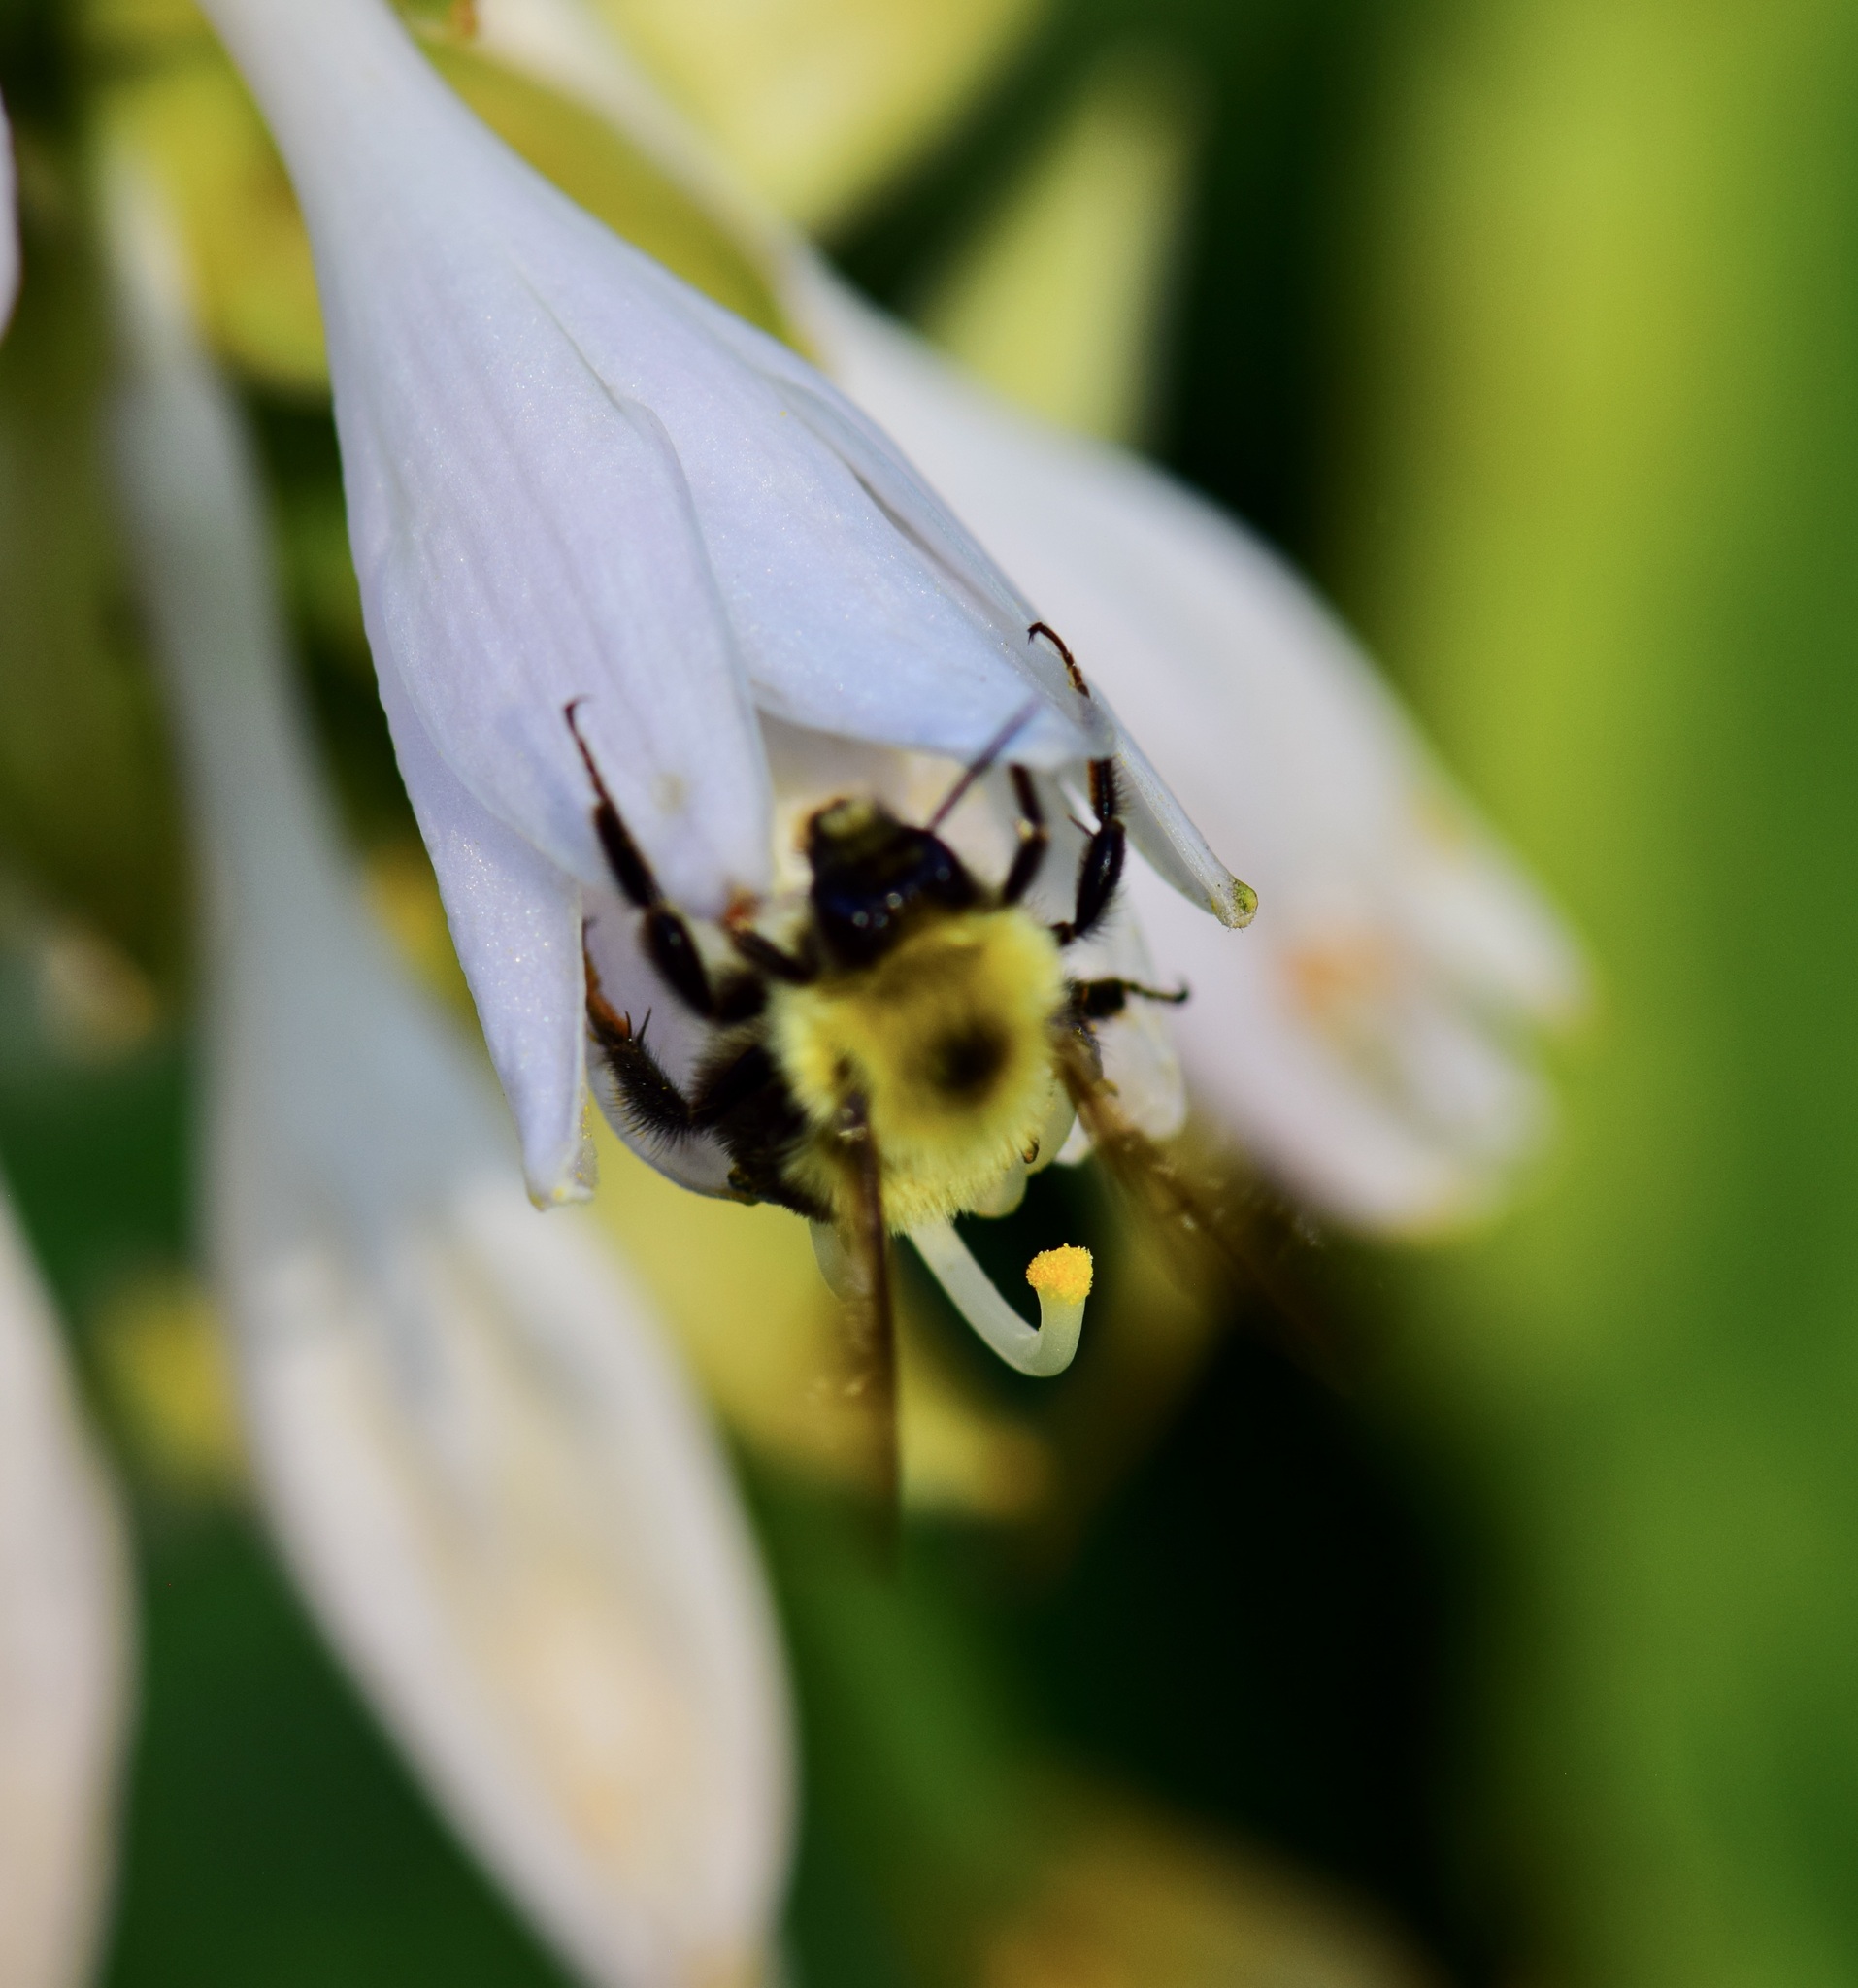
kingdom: Animalia
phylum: Arthropoda
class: Insecta
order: Hymenoptera
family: Apidae
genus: Bombus
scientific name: Bombus bimaculatus
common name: Two-spotted bumble bee
